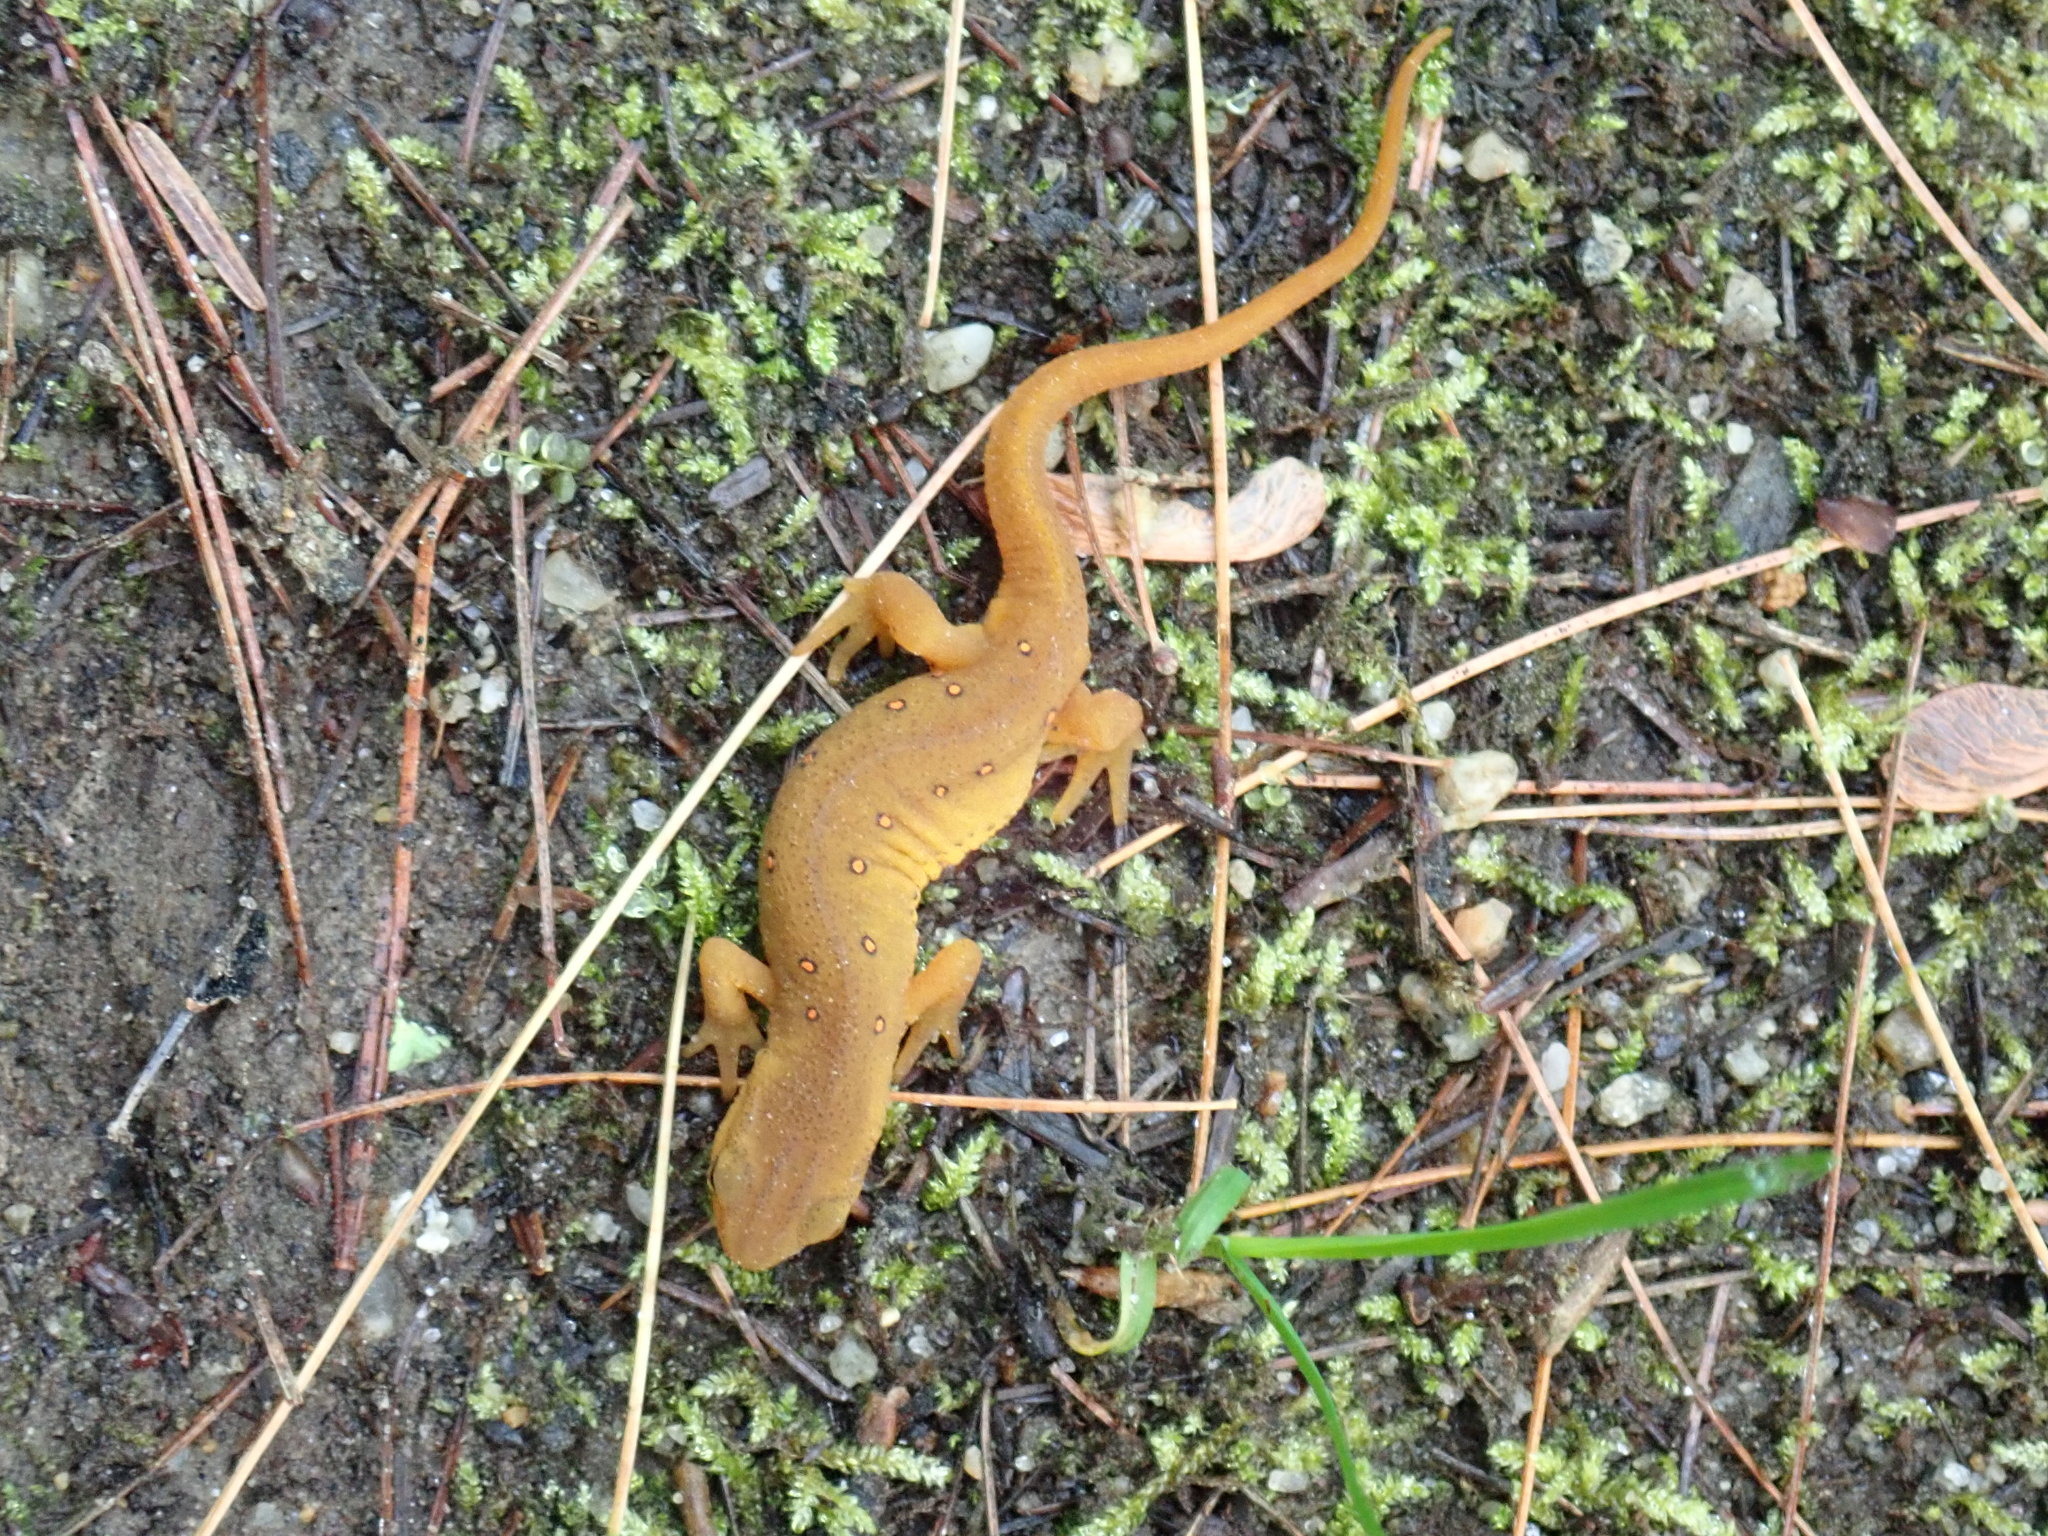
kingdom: Animalia
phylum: Chordata
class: Amphibia
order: Caudata
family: Salamandridae
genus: Notophthalmus
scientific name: Notophthalmus viridescens
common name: Eastern newt
